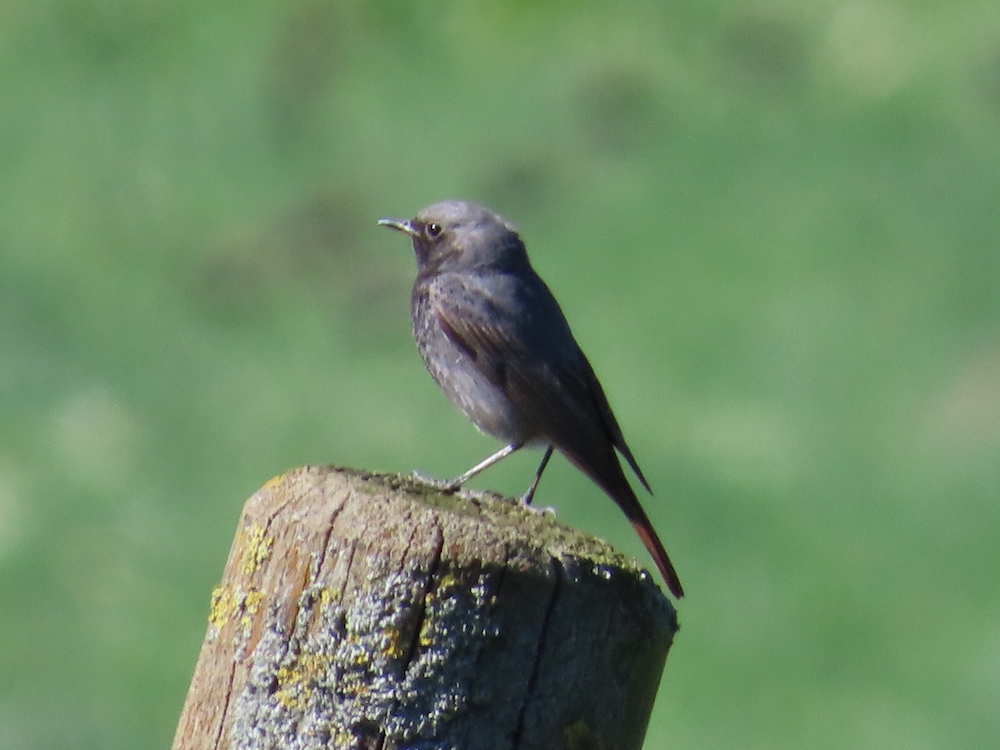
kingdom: Animalia
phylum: Chordata
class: Aves
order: Passeriformes
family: Muscicapidae
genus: Phoenicurus
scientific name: Phoenicurus ochruros
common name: Black redstart
